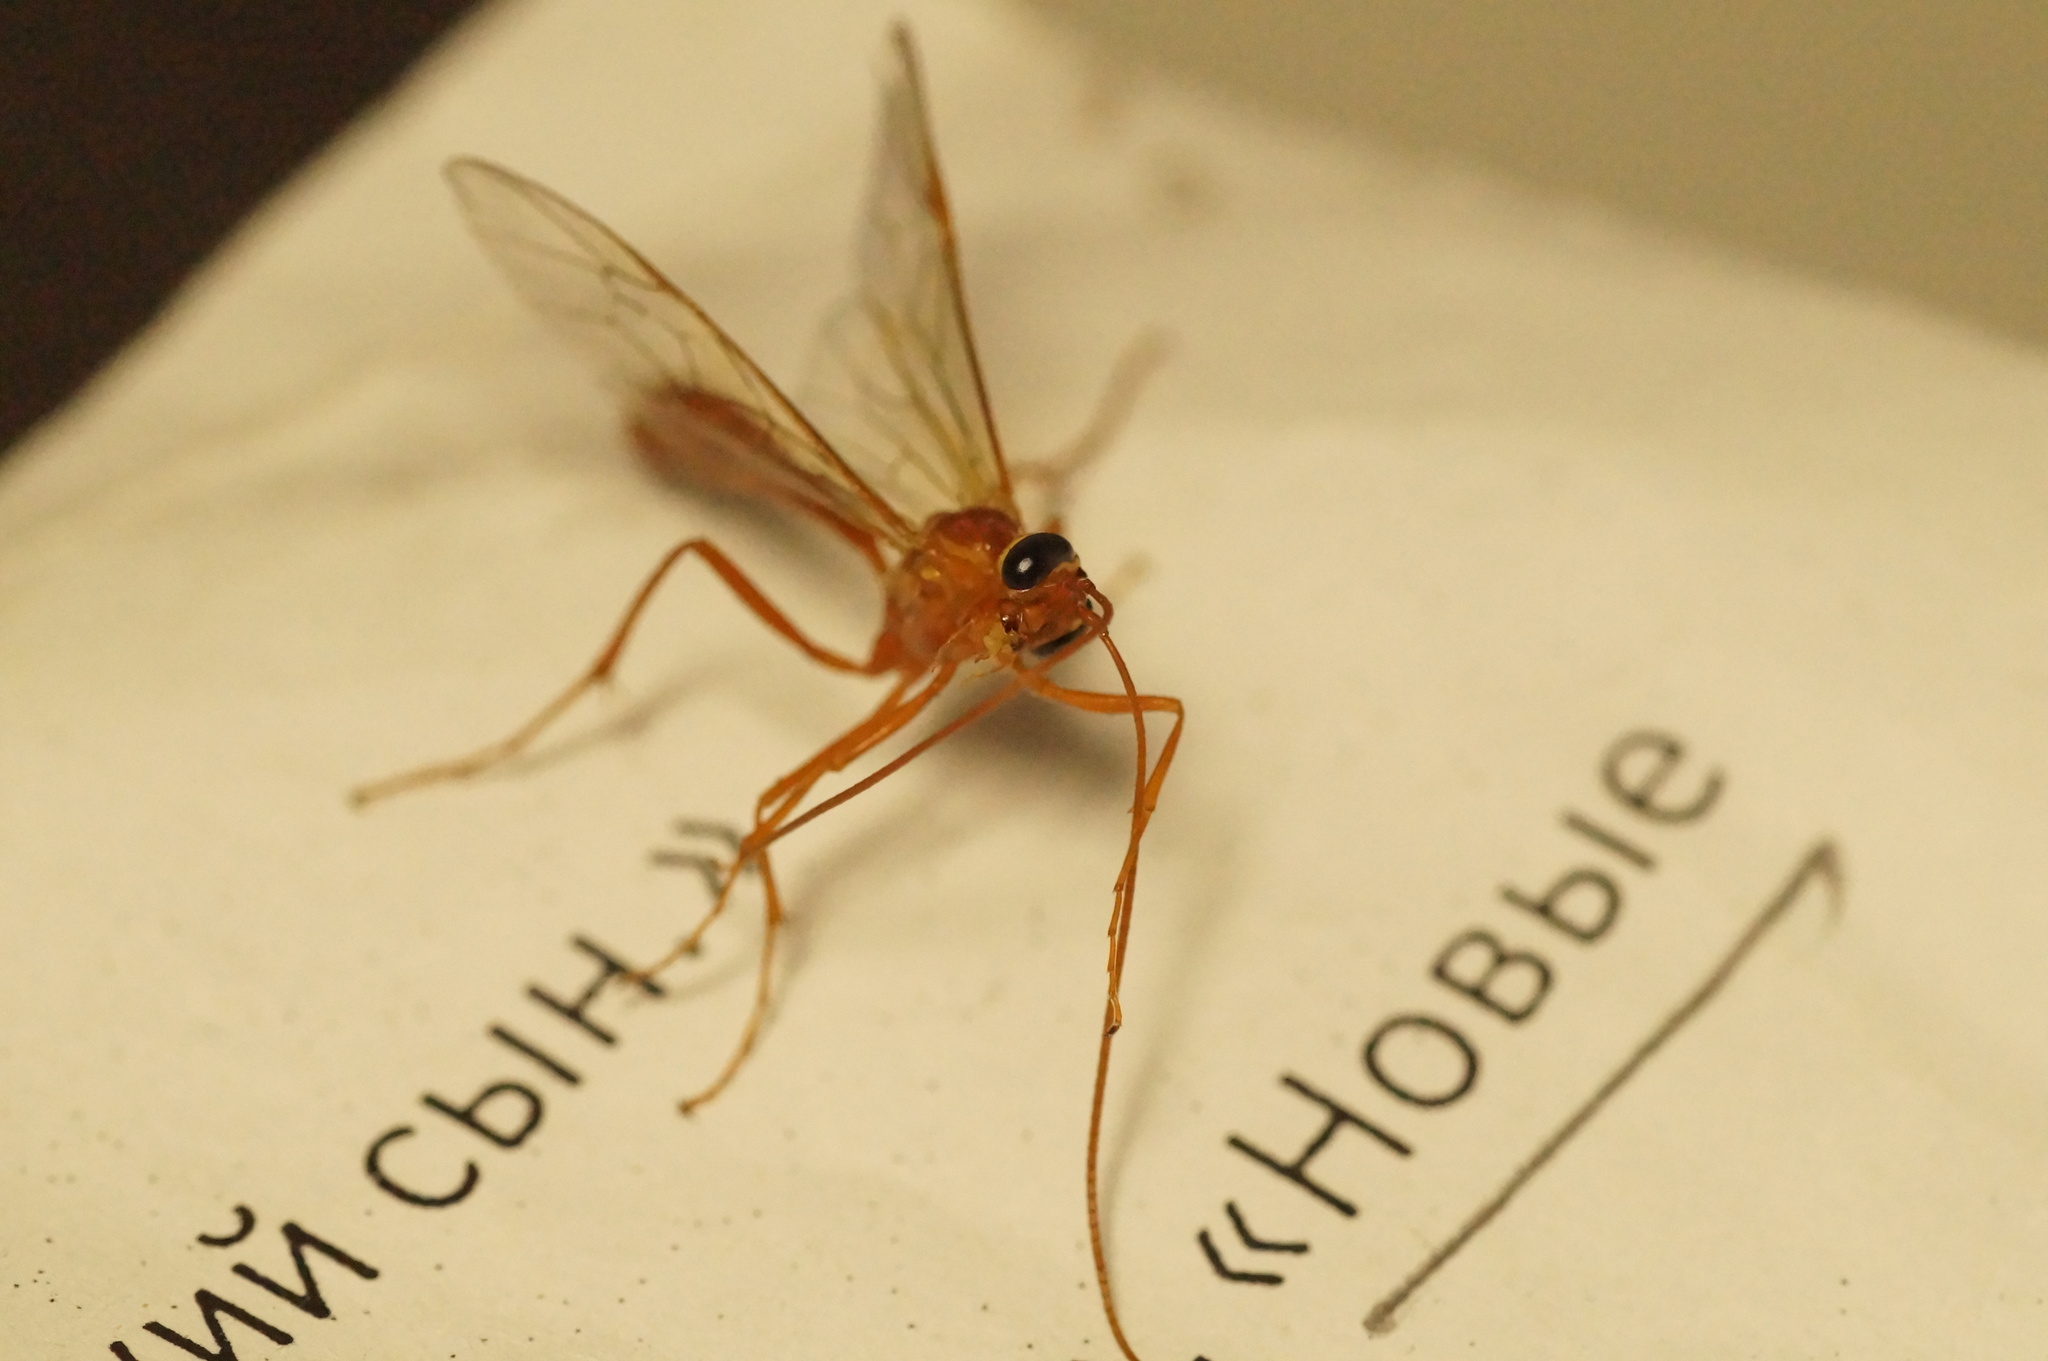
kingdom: Animalia
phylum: Arthropoda
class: Insecta
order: Hymenoptera
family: Ichneumonidae
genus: Ophion
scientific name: Ophion
